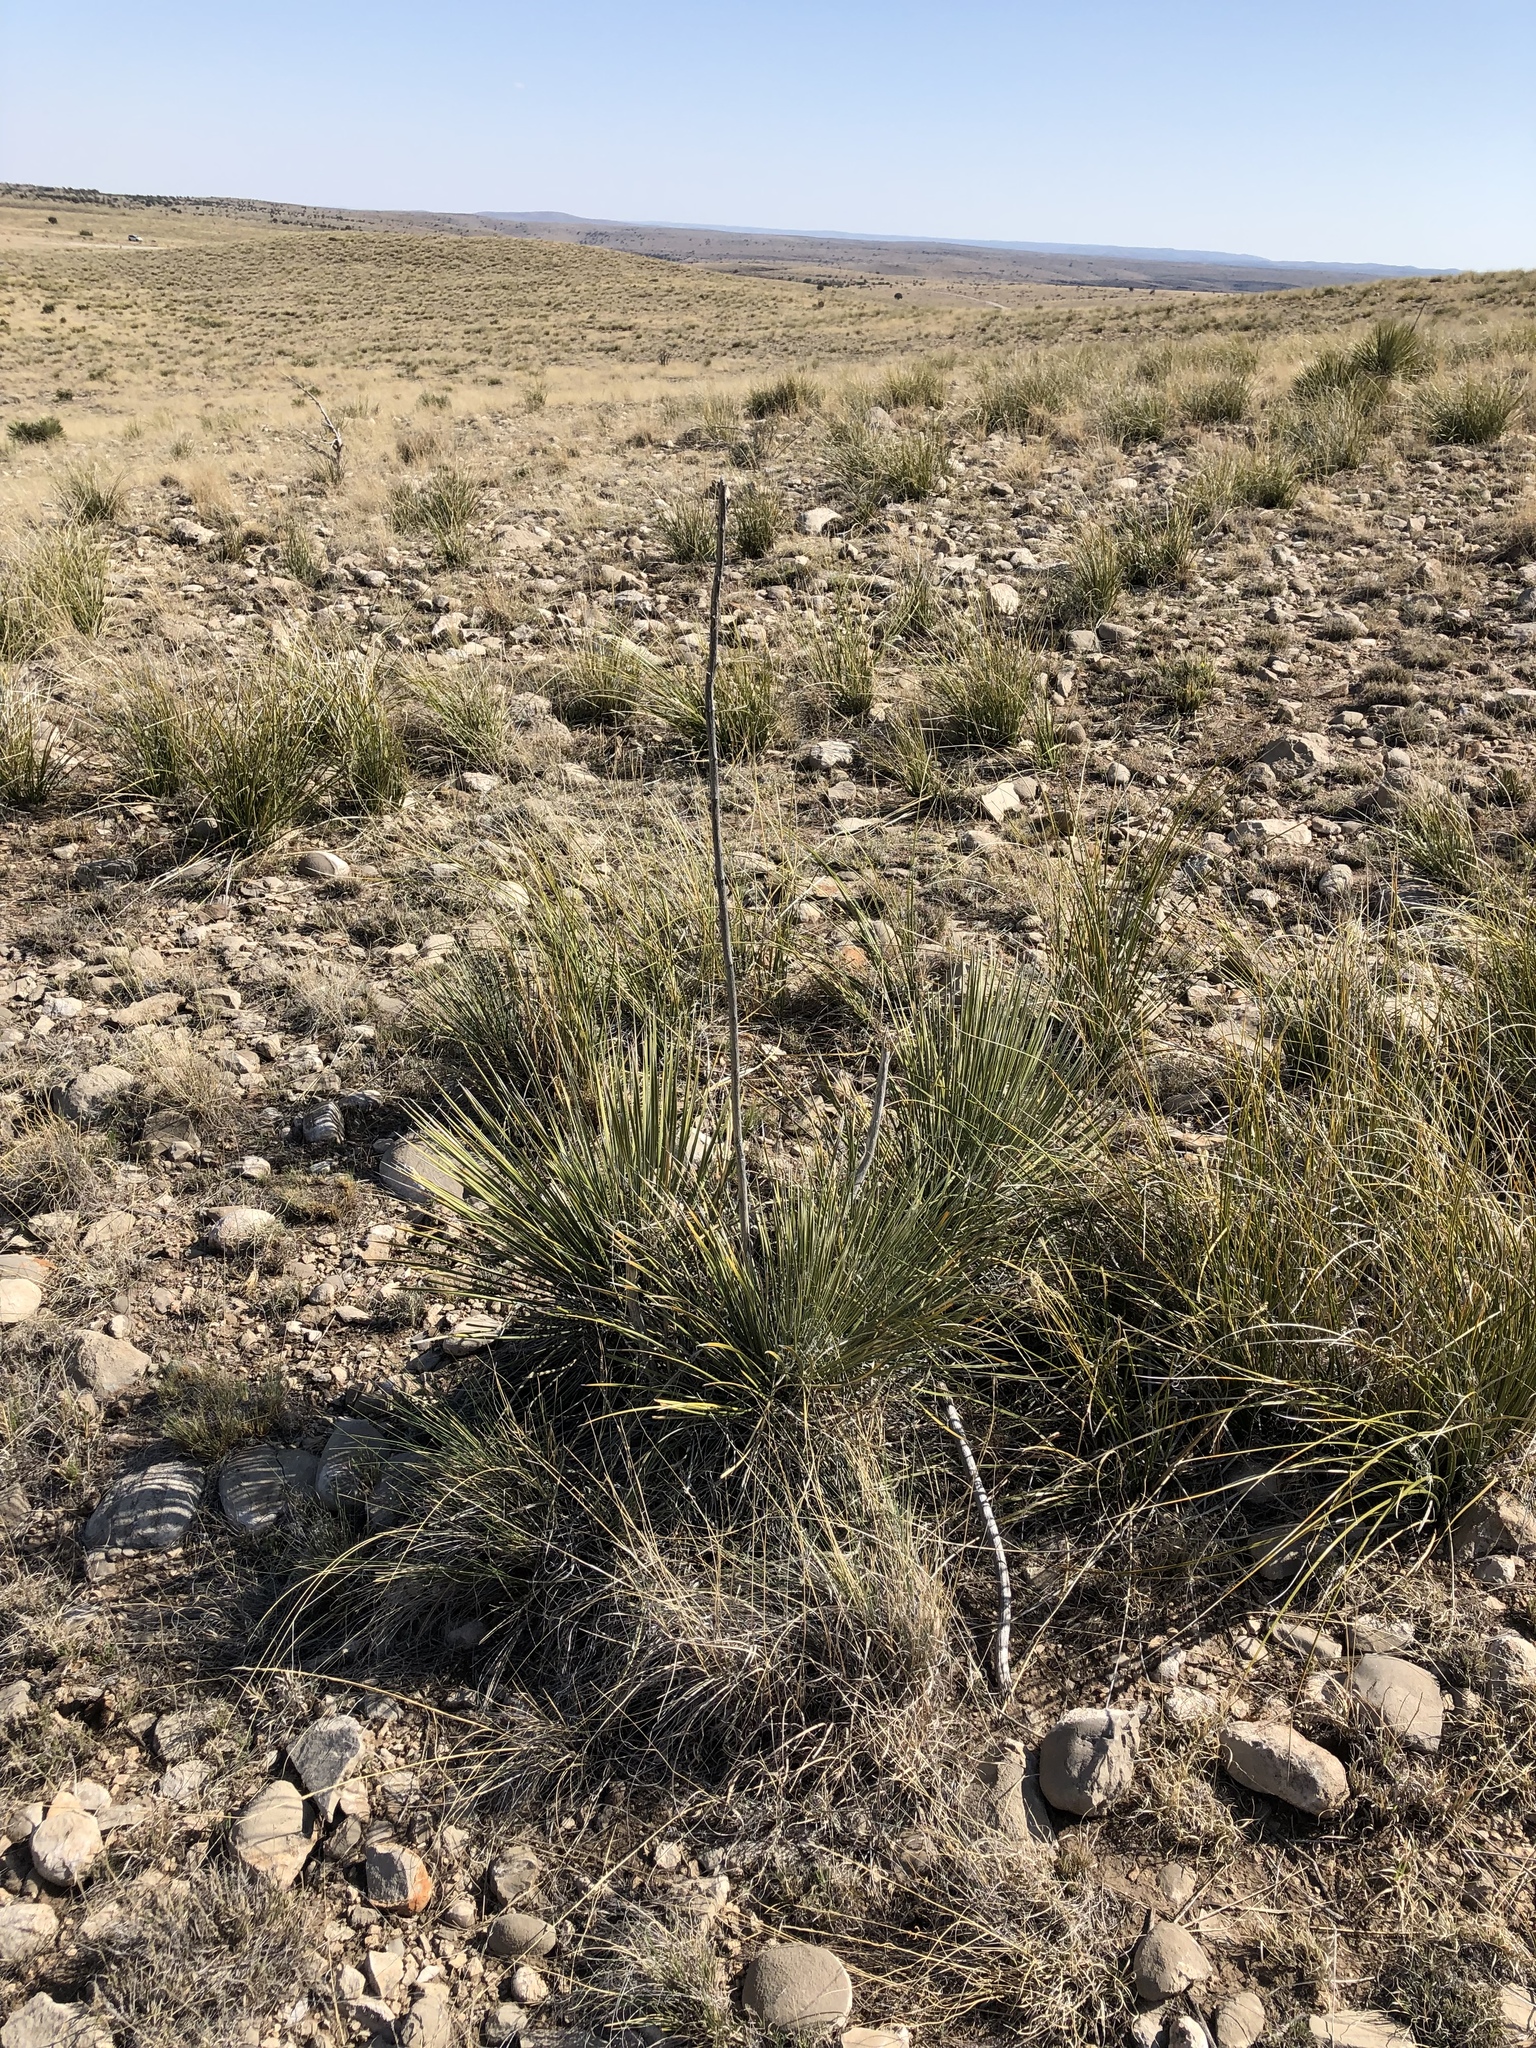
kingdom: Plantae
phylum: Tracheophyta
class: Liliopsida
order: Asparagales
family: Asparagaceae
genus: Nolina
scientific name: Nolina microcarpa
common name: Bear-grass
